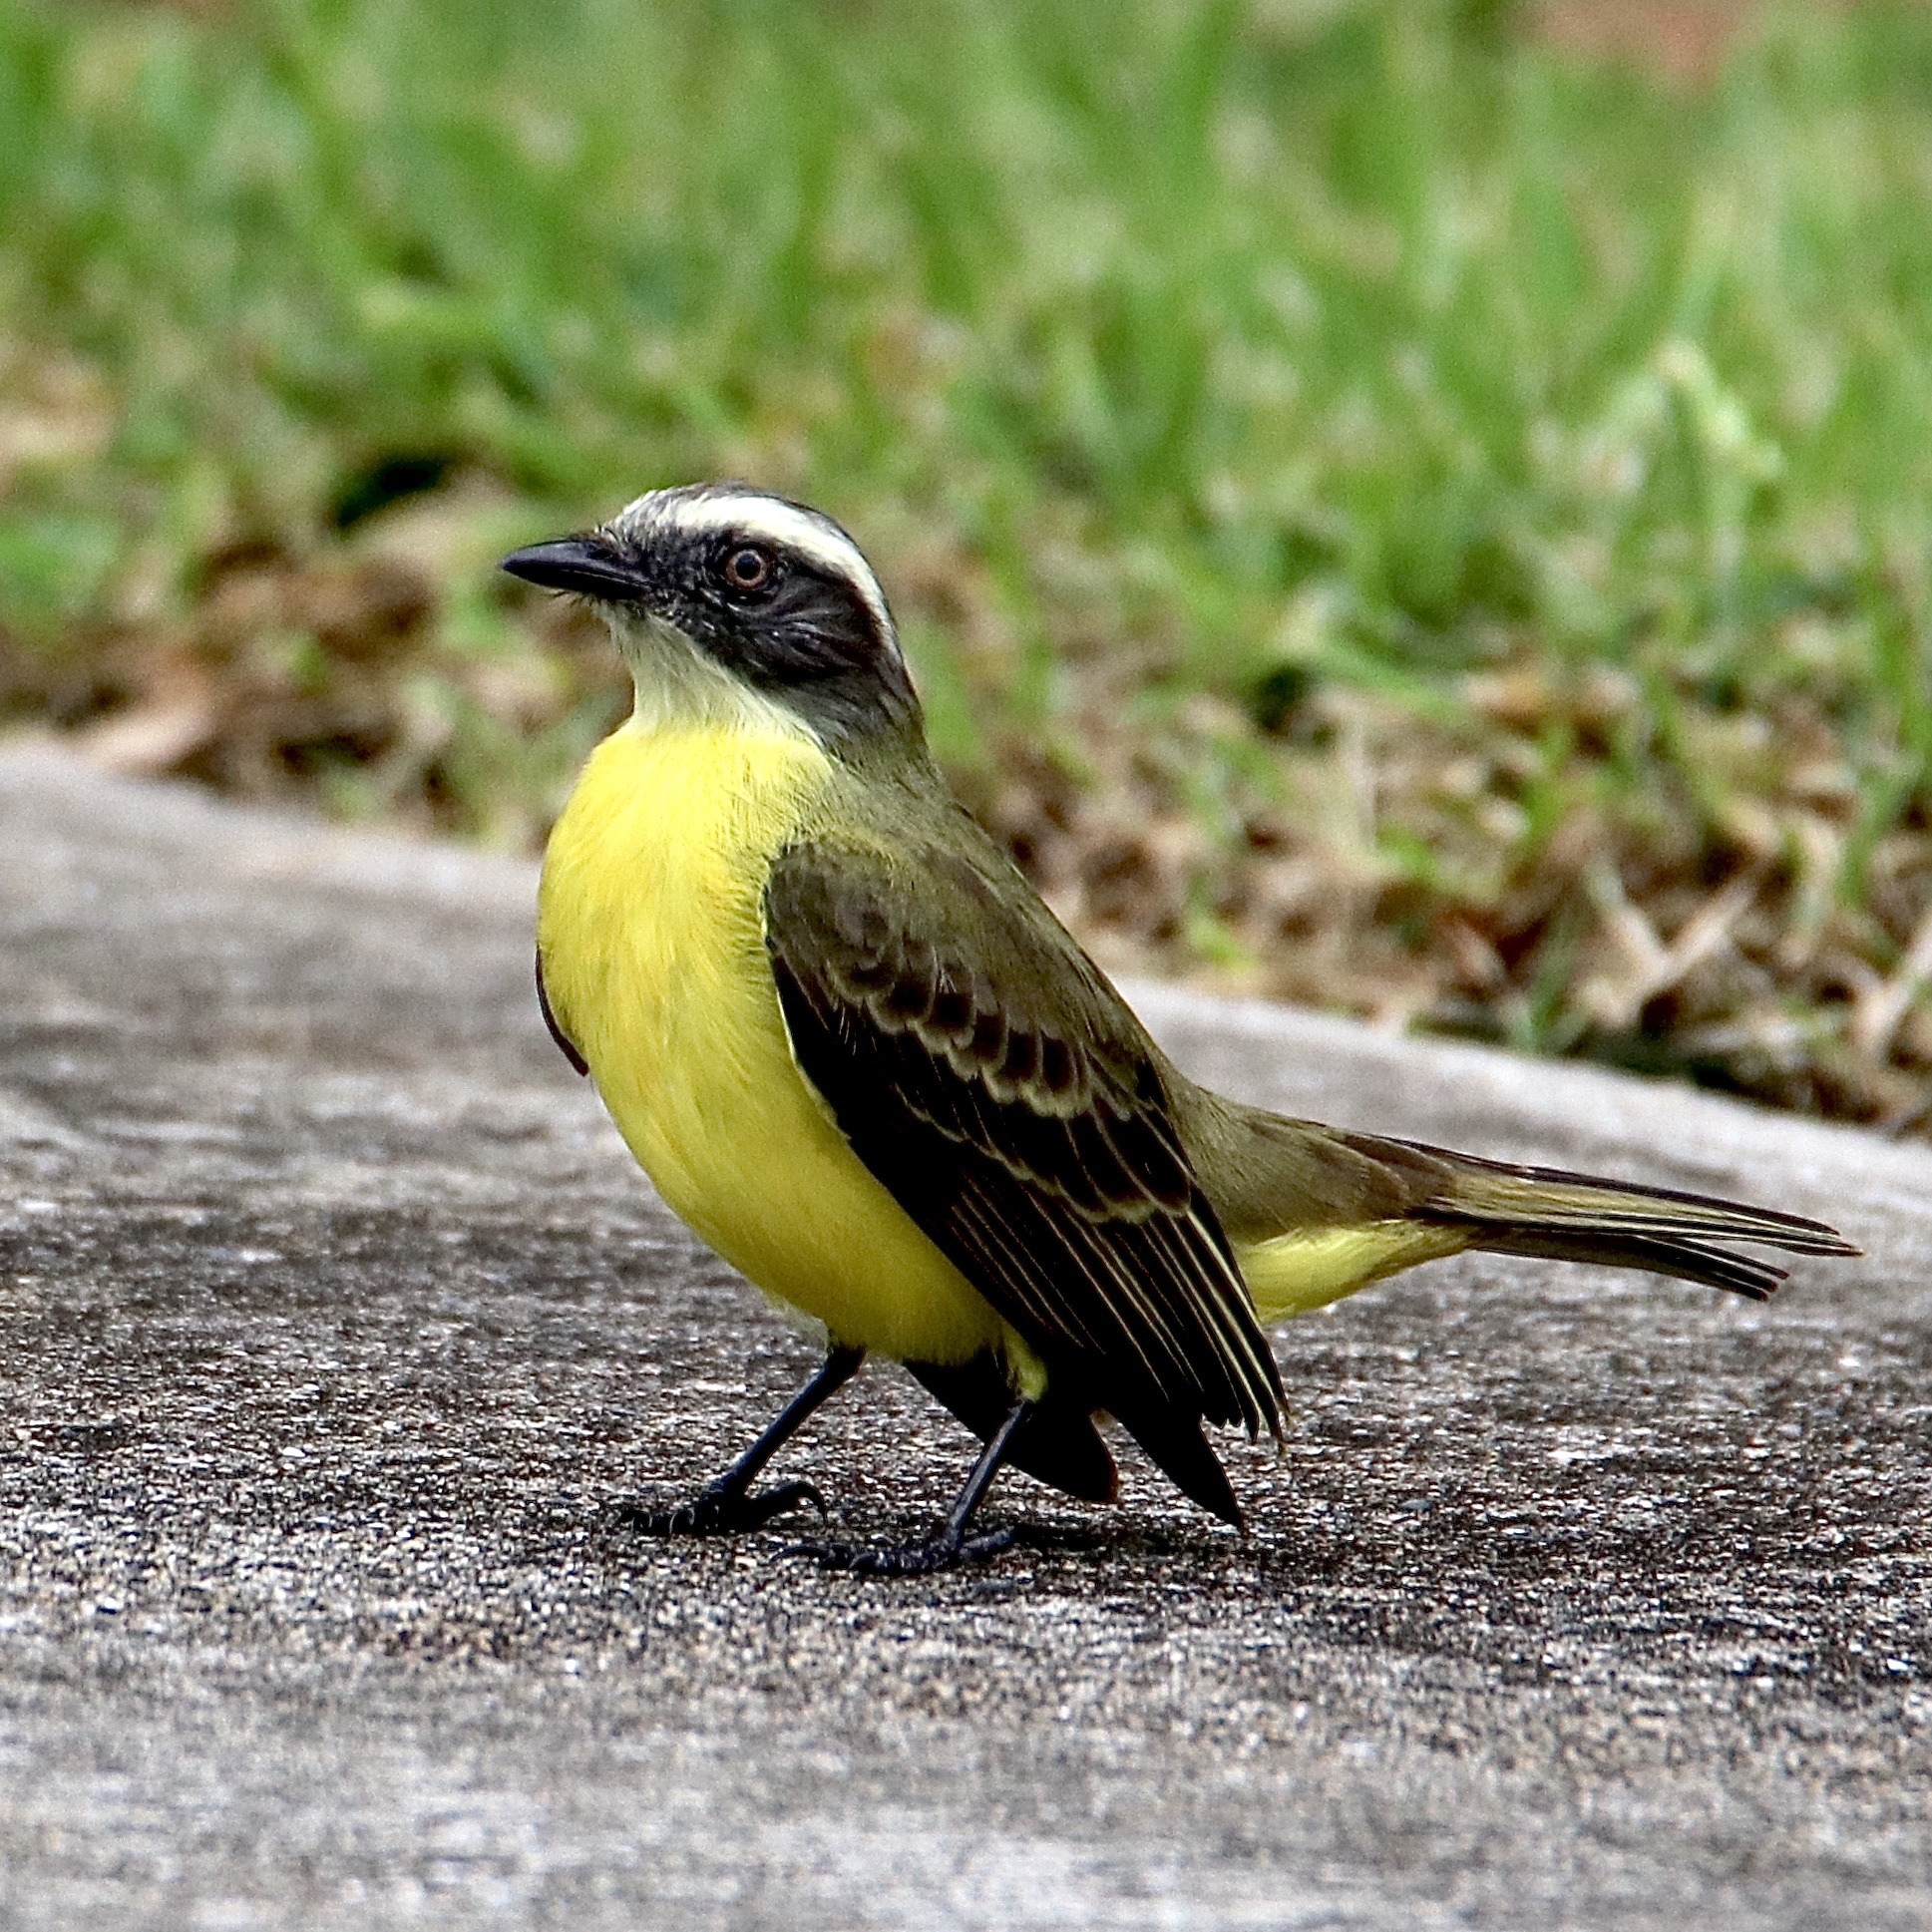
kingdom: Animalia
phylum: Chordata
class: Aves
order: Passeriformes
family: Tyrannidae
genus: Myiozetetes
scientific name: Myiozetetes similis
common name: Social flycatcher
